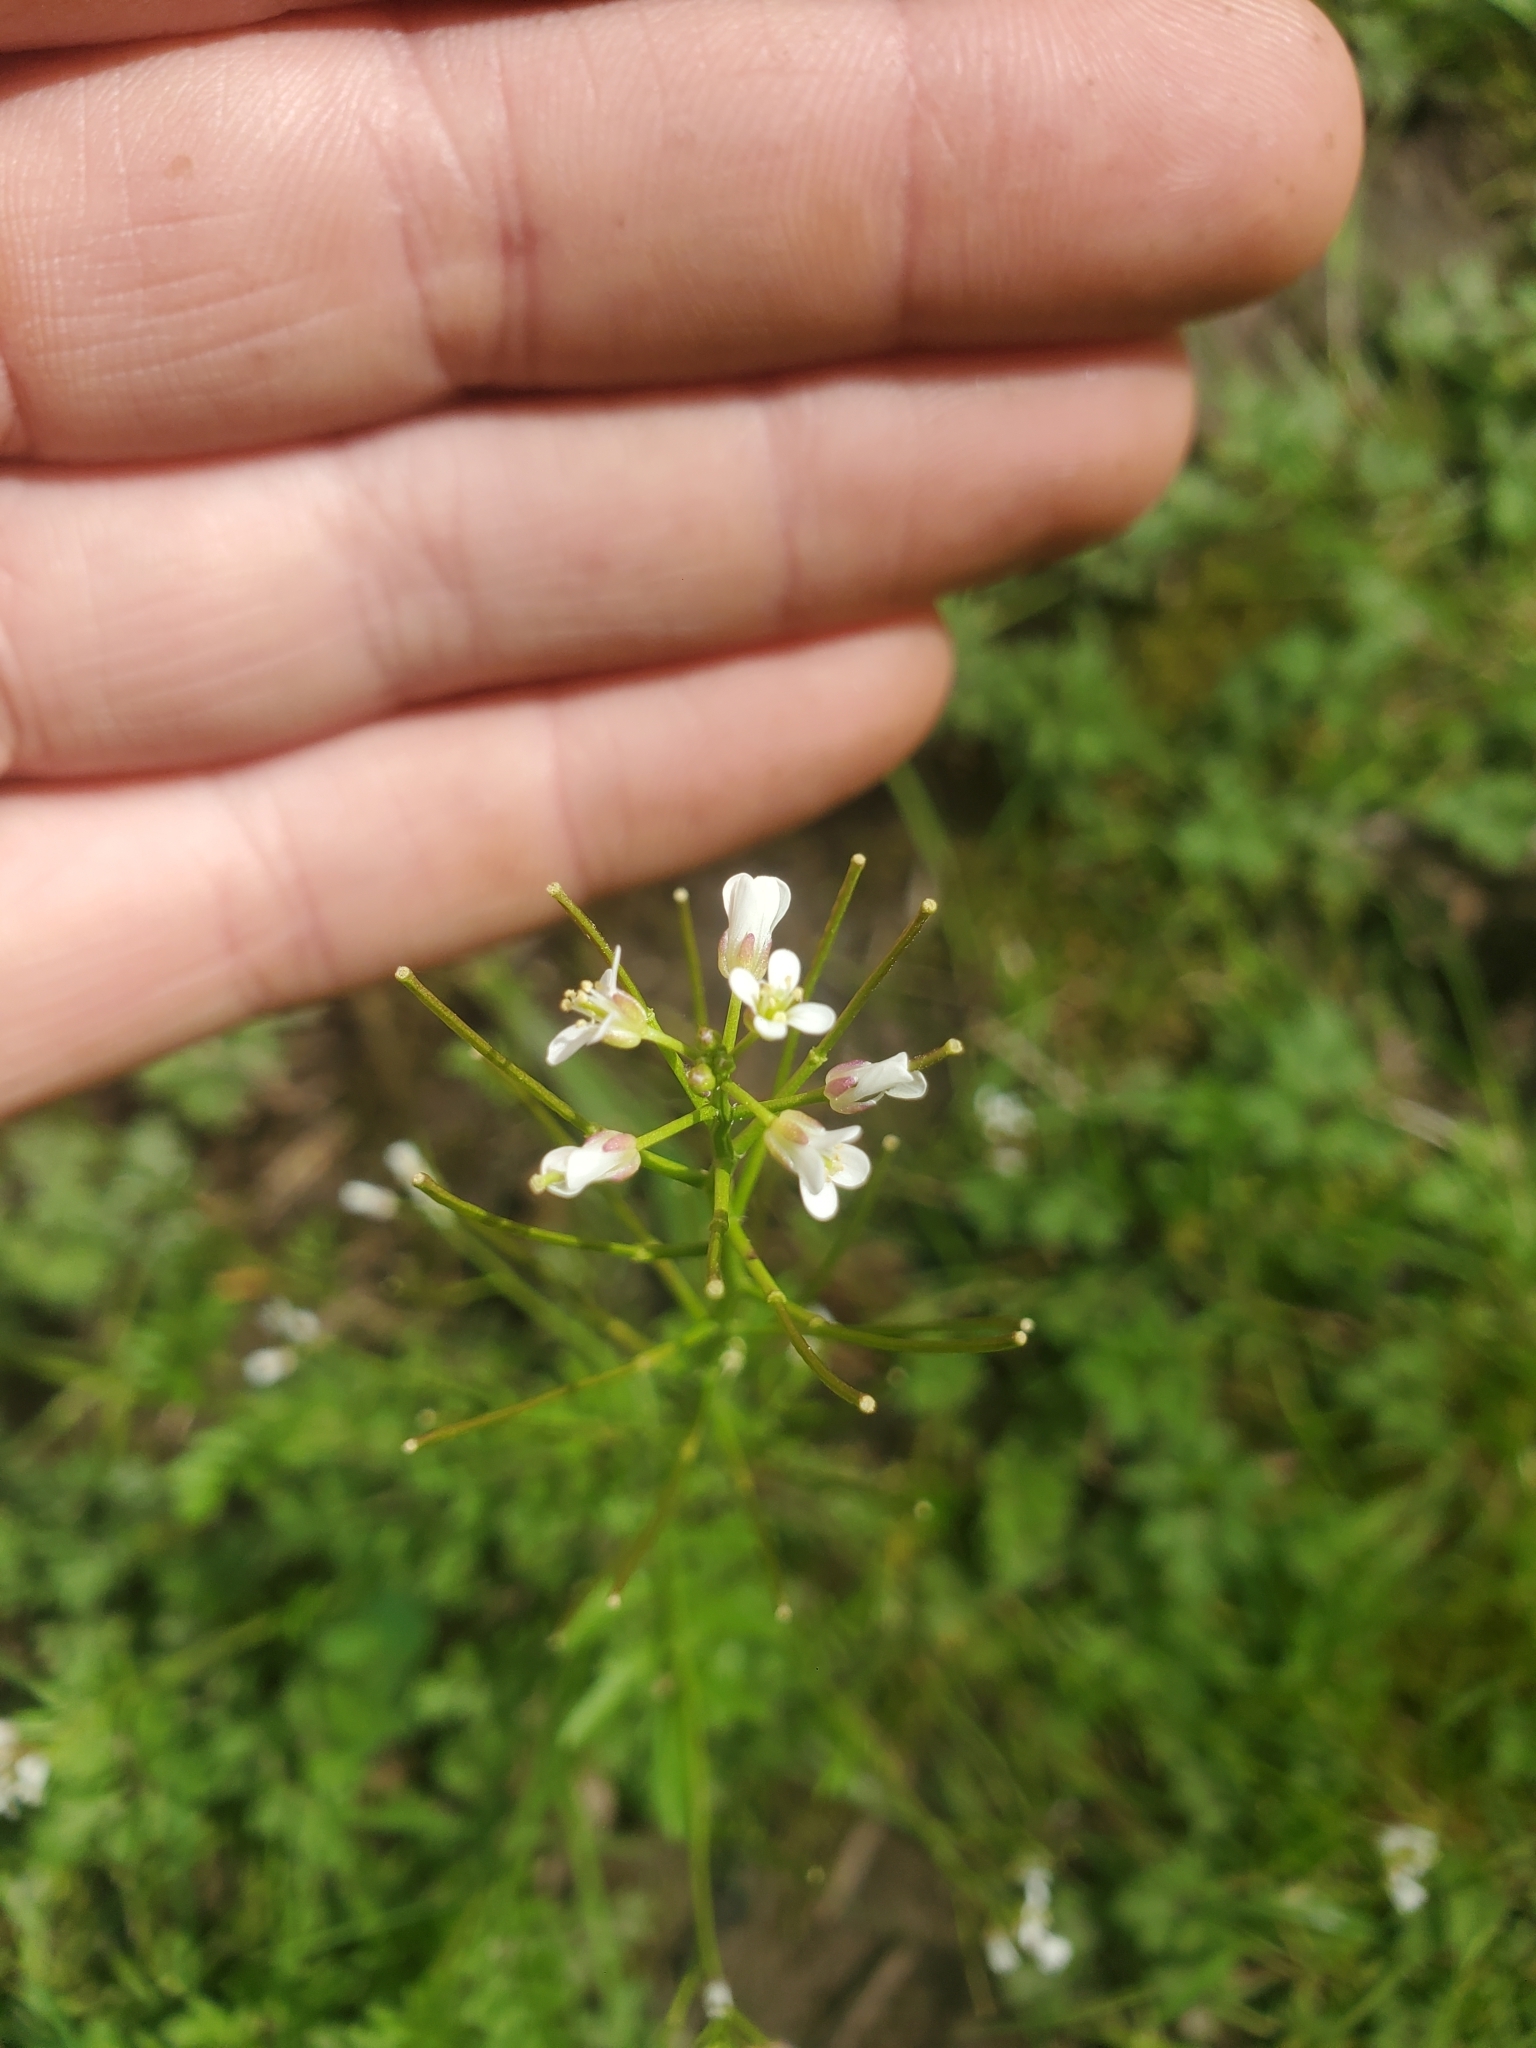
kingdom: Plantae
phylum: Tracheophyta
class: Magnoliopsida
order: Brassicales
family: Brassicaceae
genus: Cardamine
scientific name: Cardamine flexuosa
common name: Woodland bittercress
